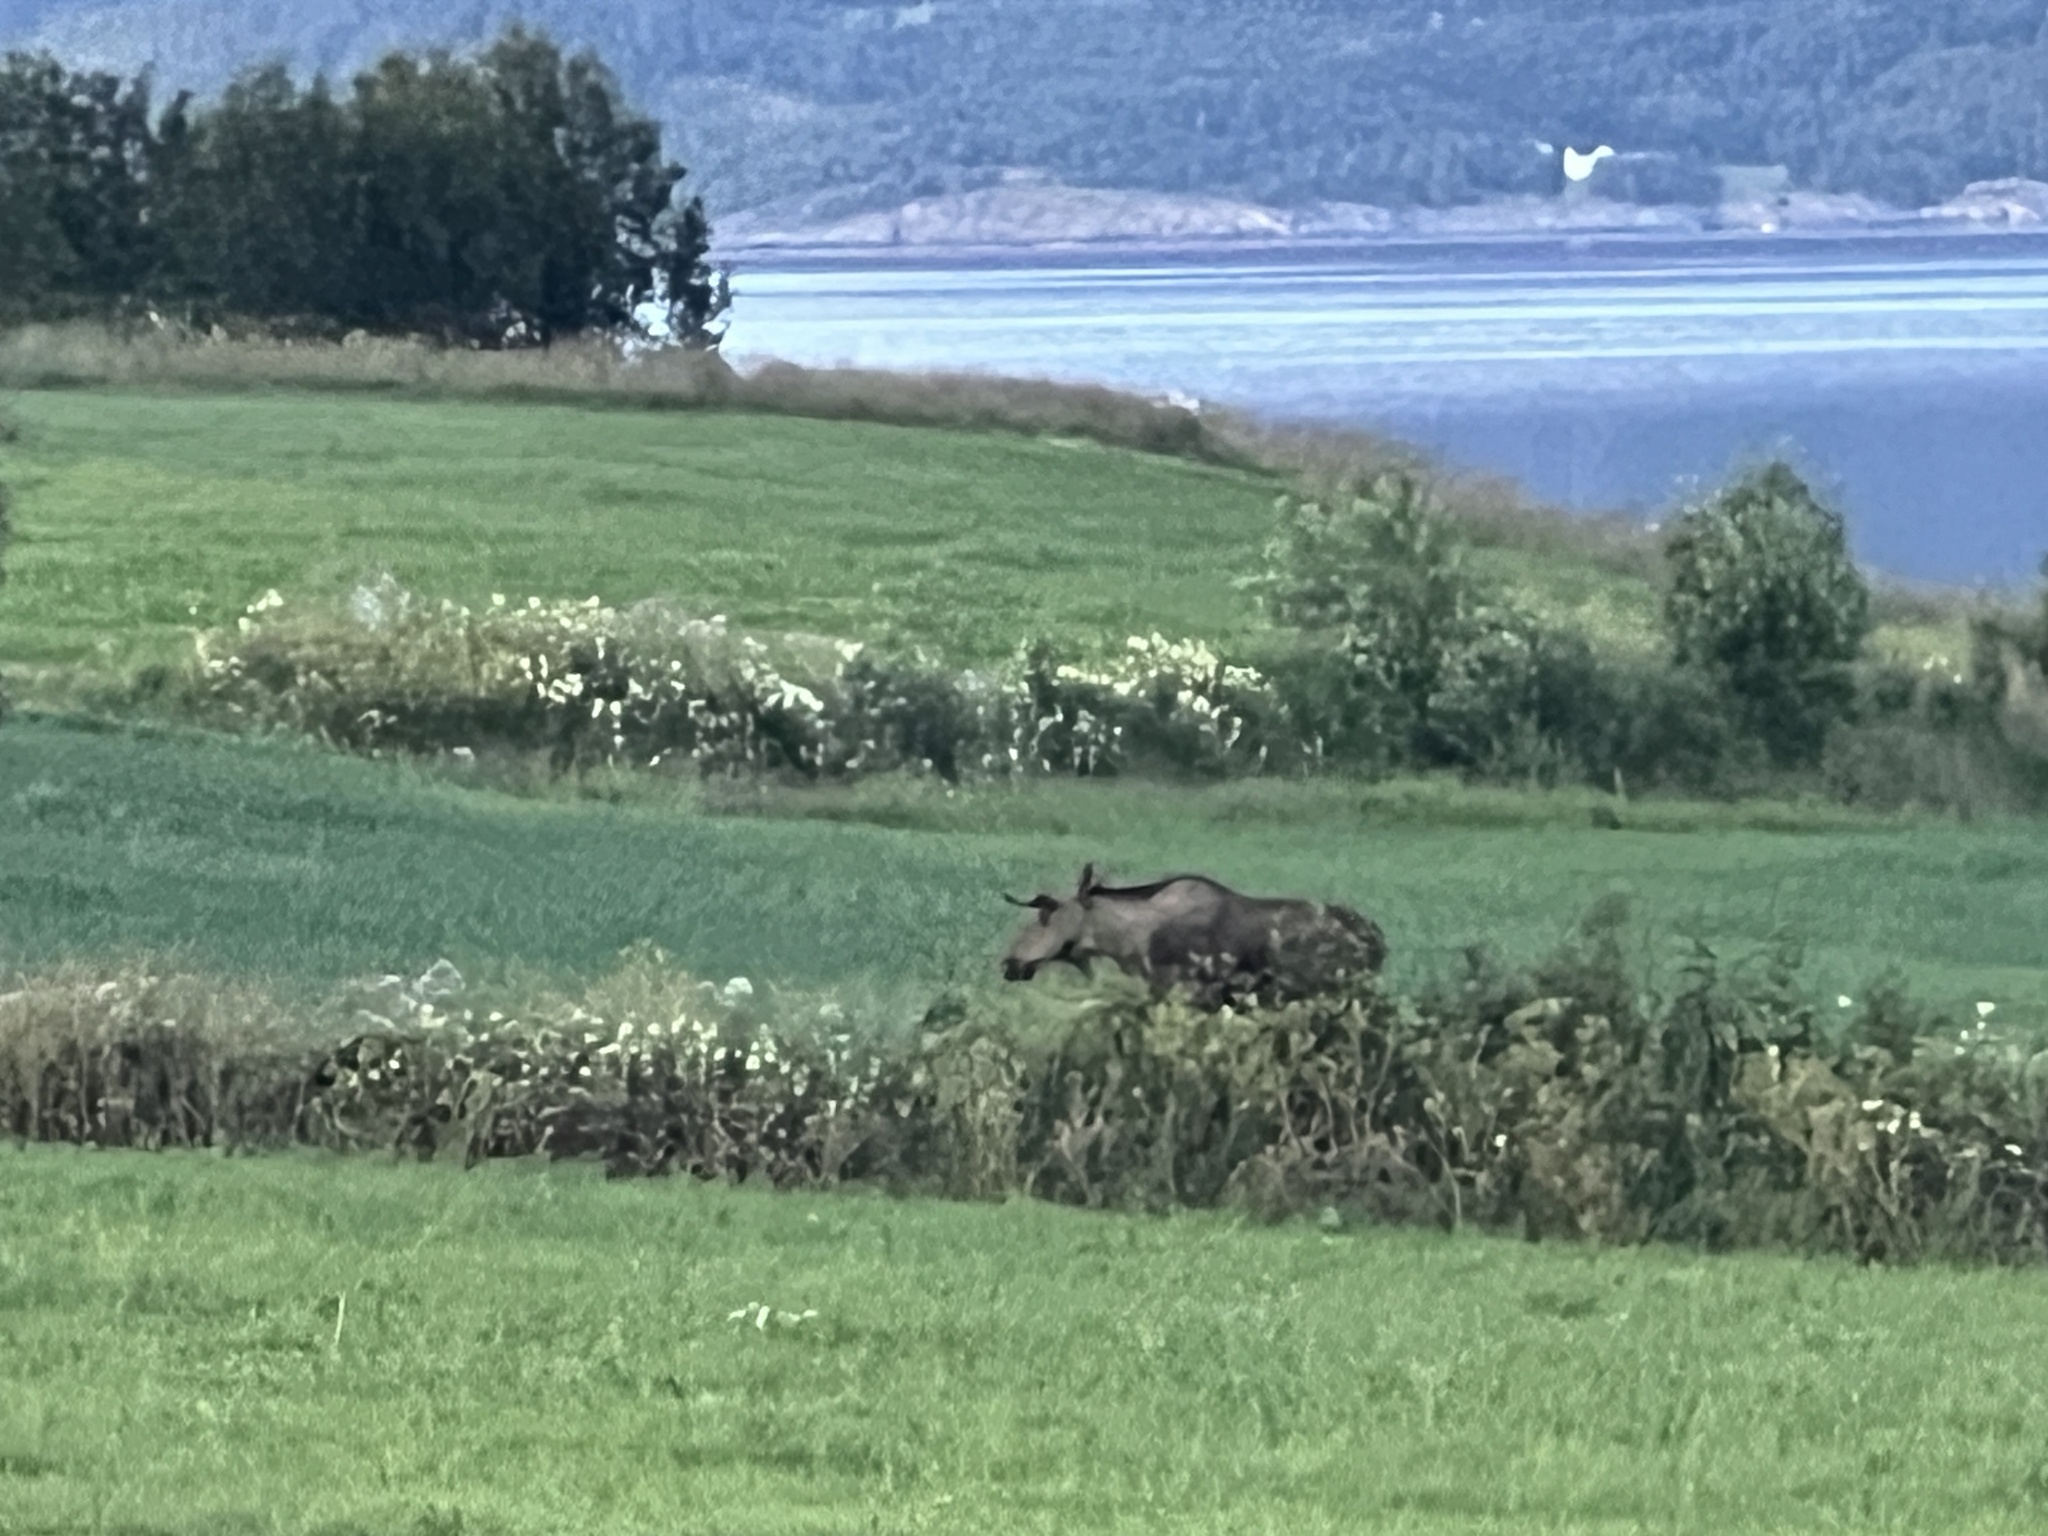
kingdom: Animalia
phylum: Chordata
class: Mammalia
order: Artiodactyla
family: Cervidae
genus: Alces
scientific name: Alces alces
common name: Moose
